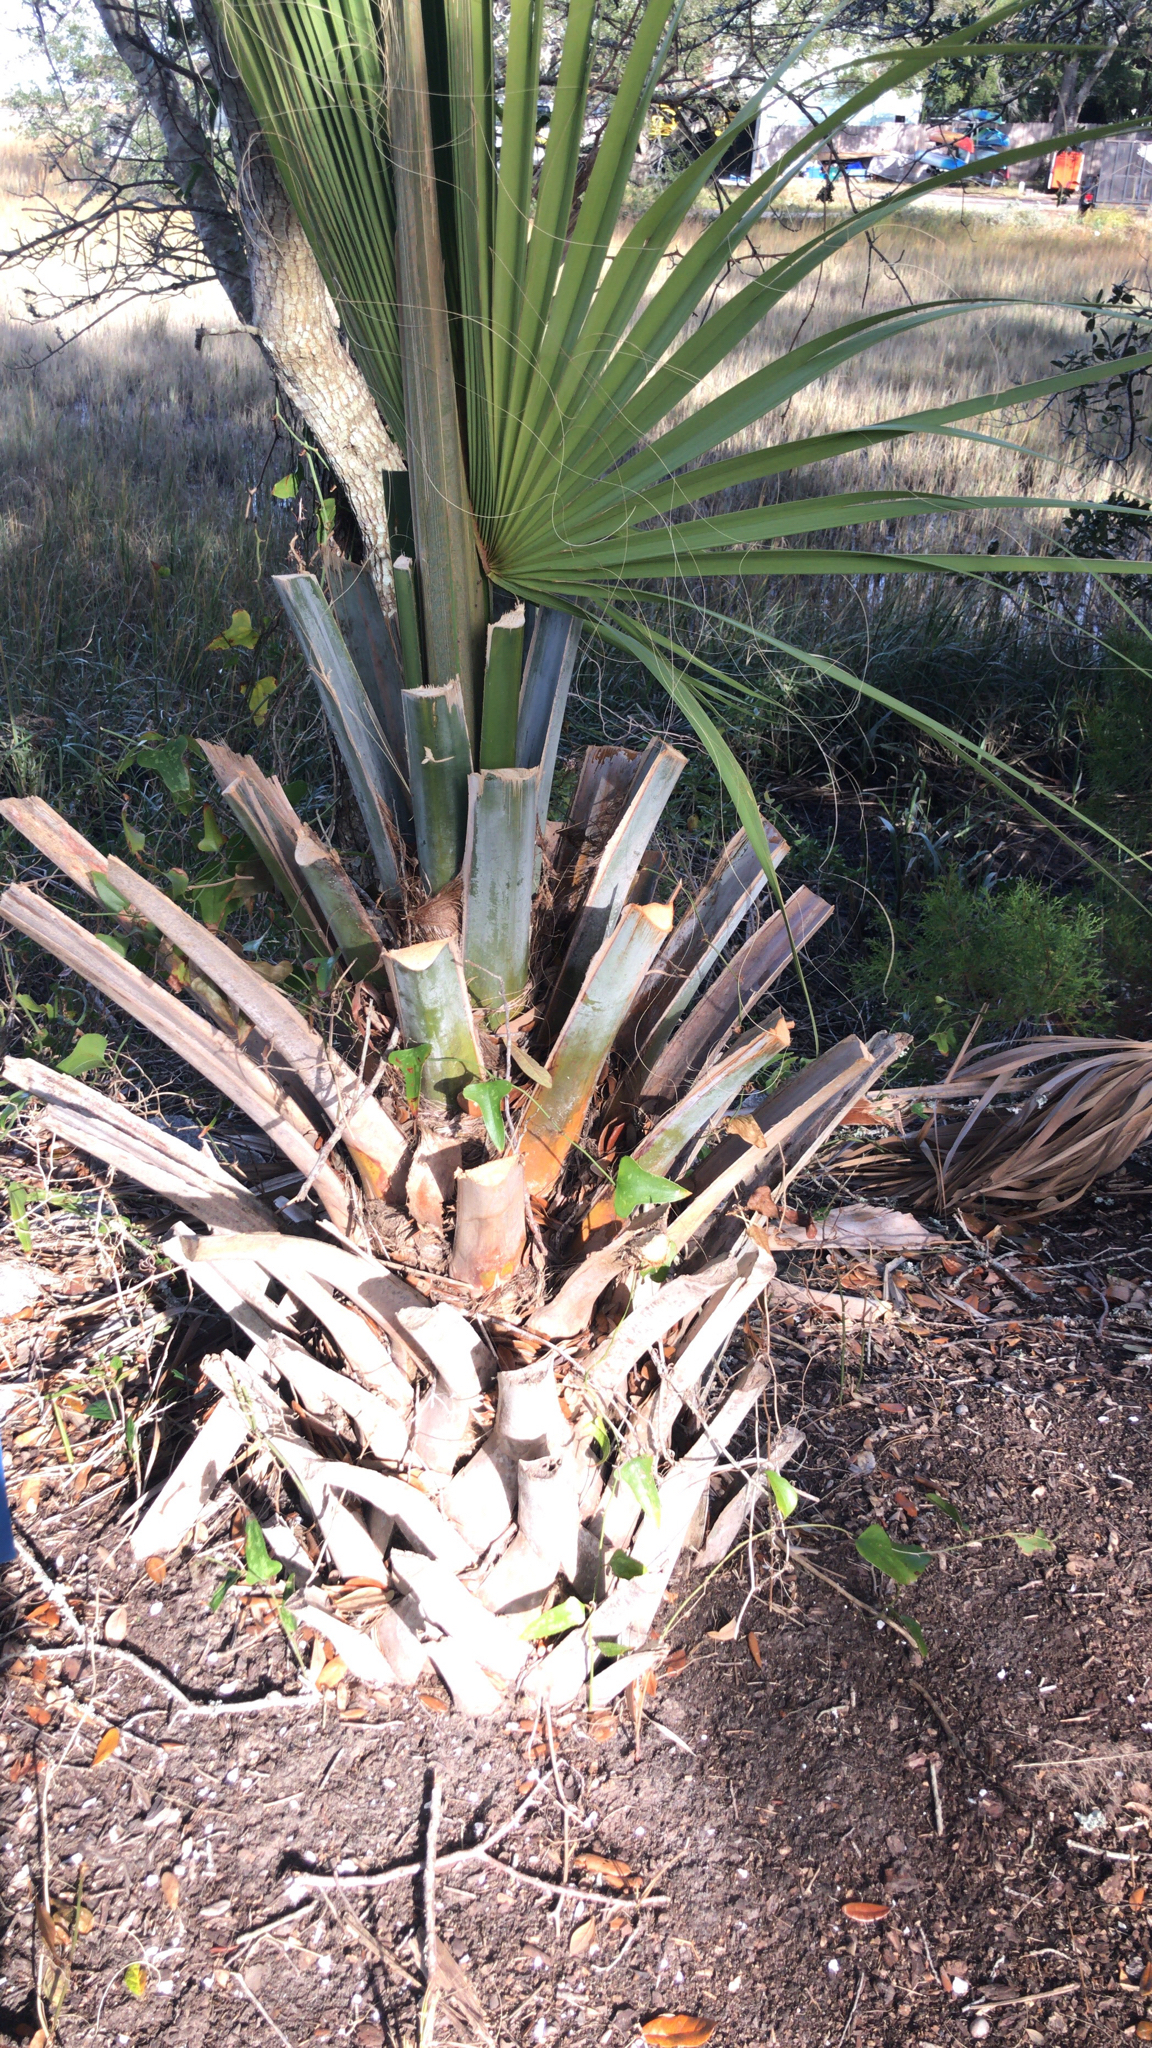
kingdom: Plantae
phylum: Tracheophyta
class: Liliopsida
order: Arecales
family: Arecaceae
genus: Sabal
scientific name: Sabal palmetto
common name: Blue palmetto
